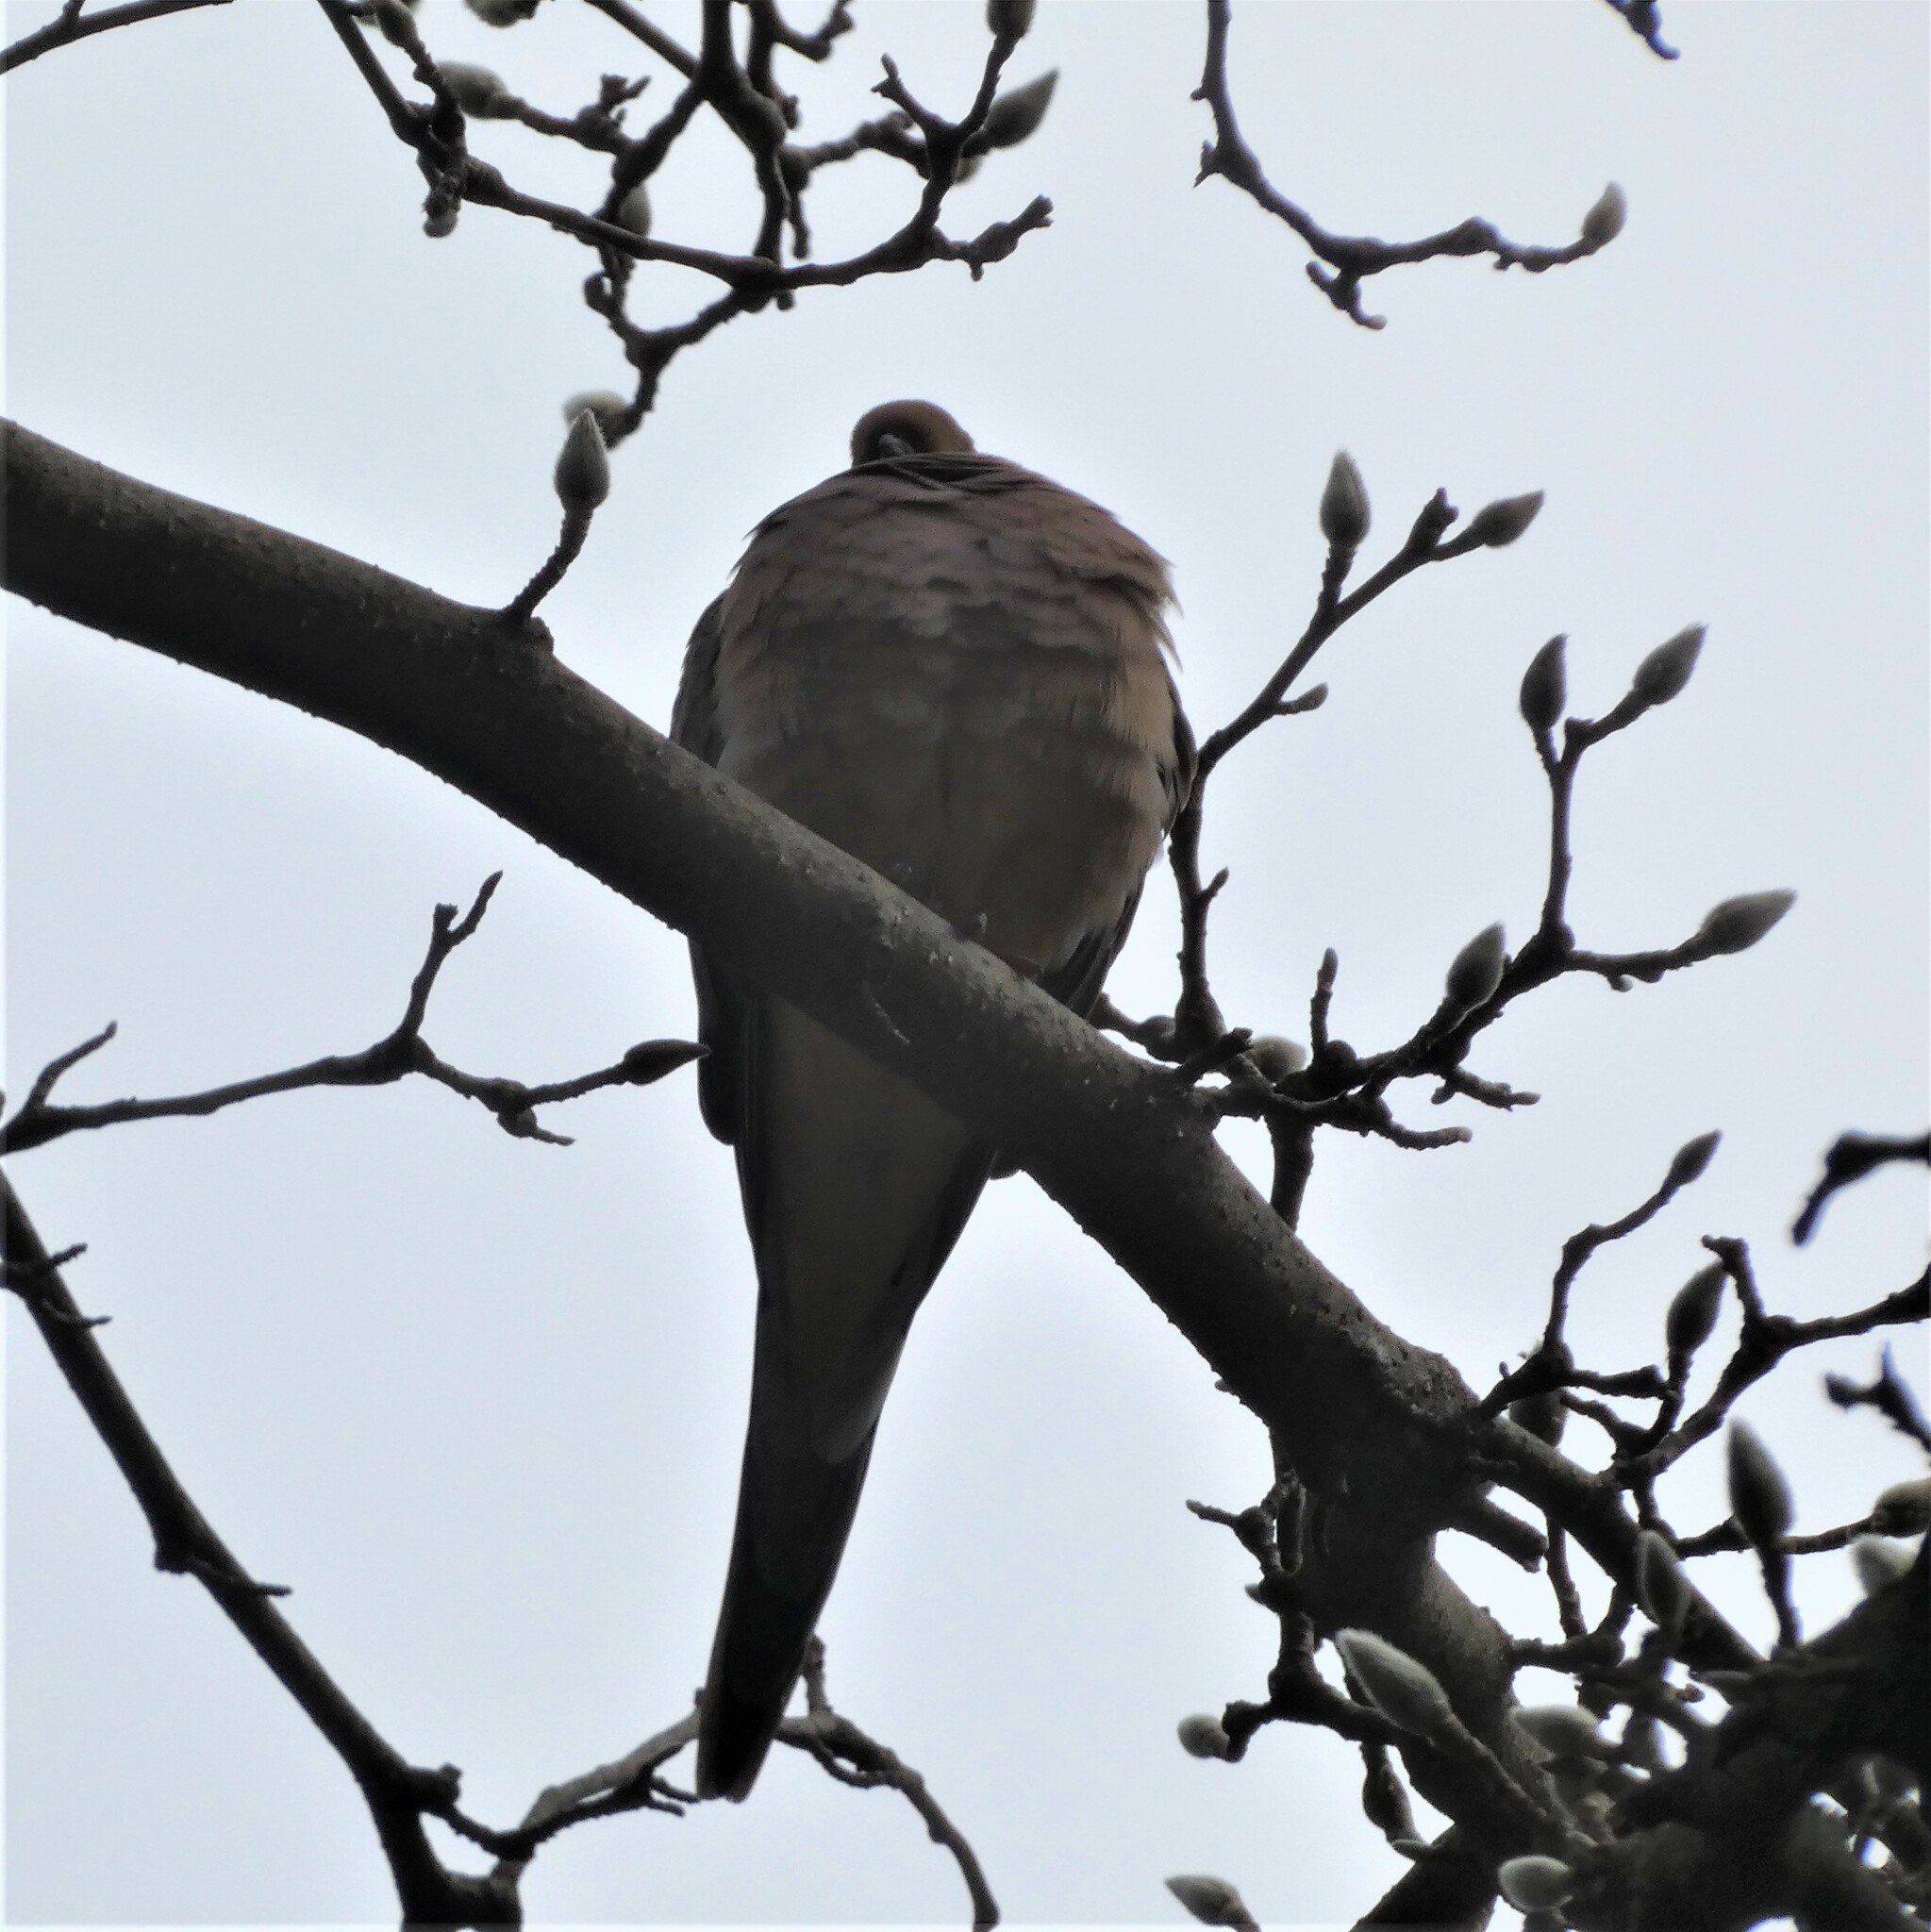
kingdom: Animalia
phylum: Chordata
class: Aves
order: Columbiformes
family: Columbidae
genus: Zenaida
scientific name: Zenaida macroura
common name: Mourning dove
